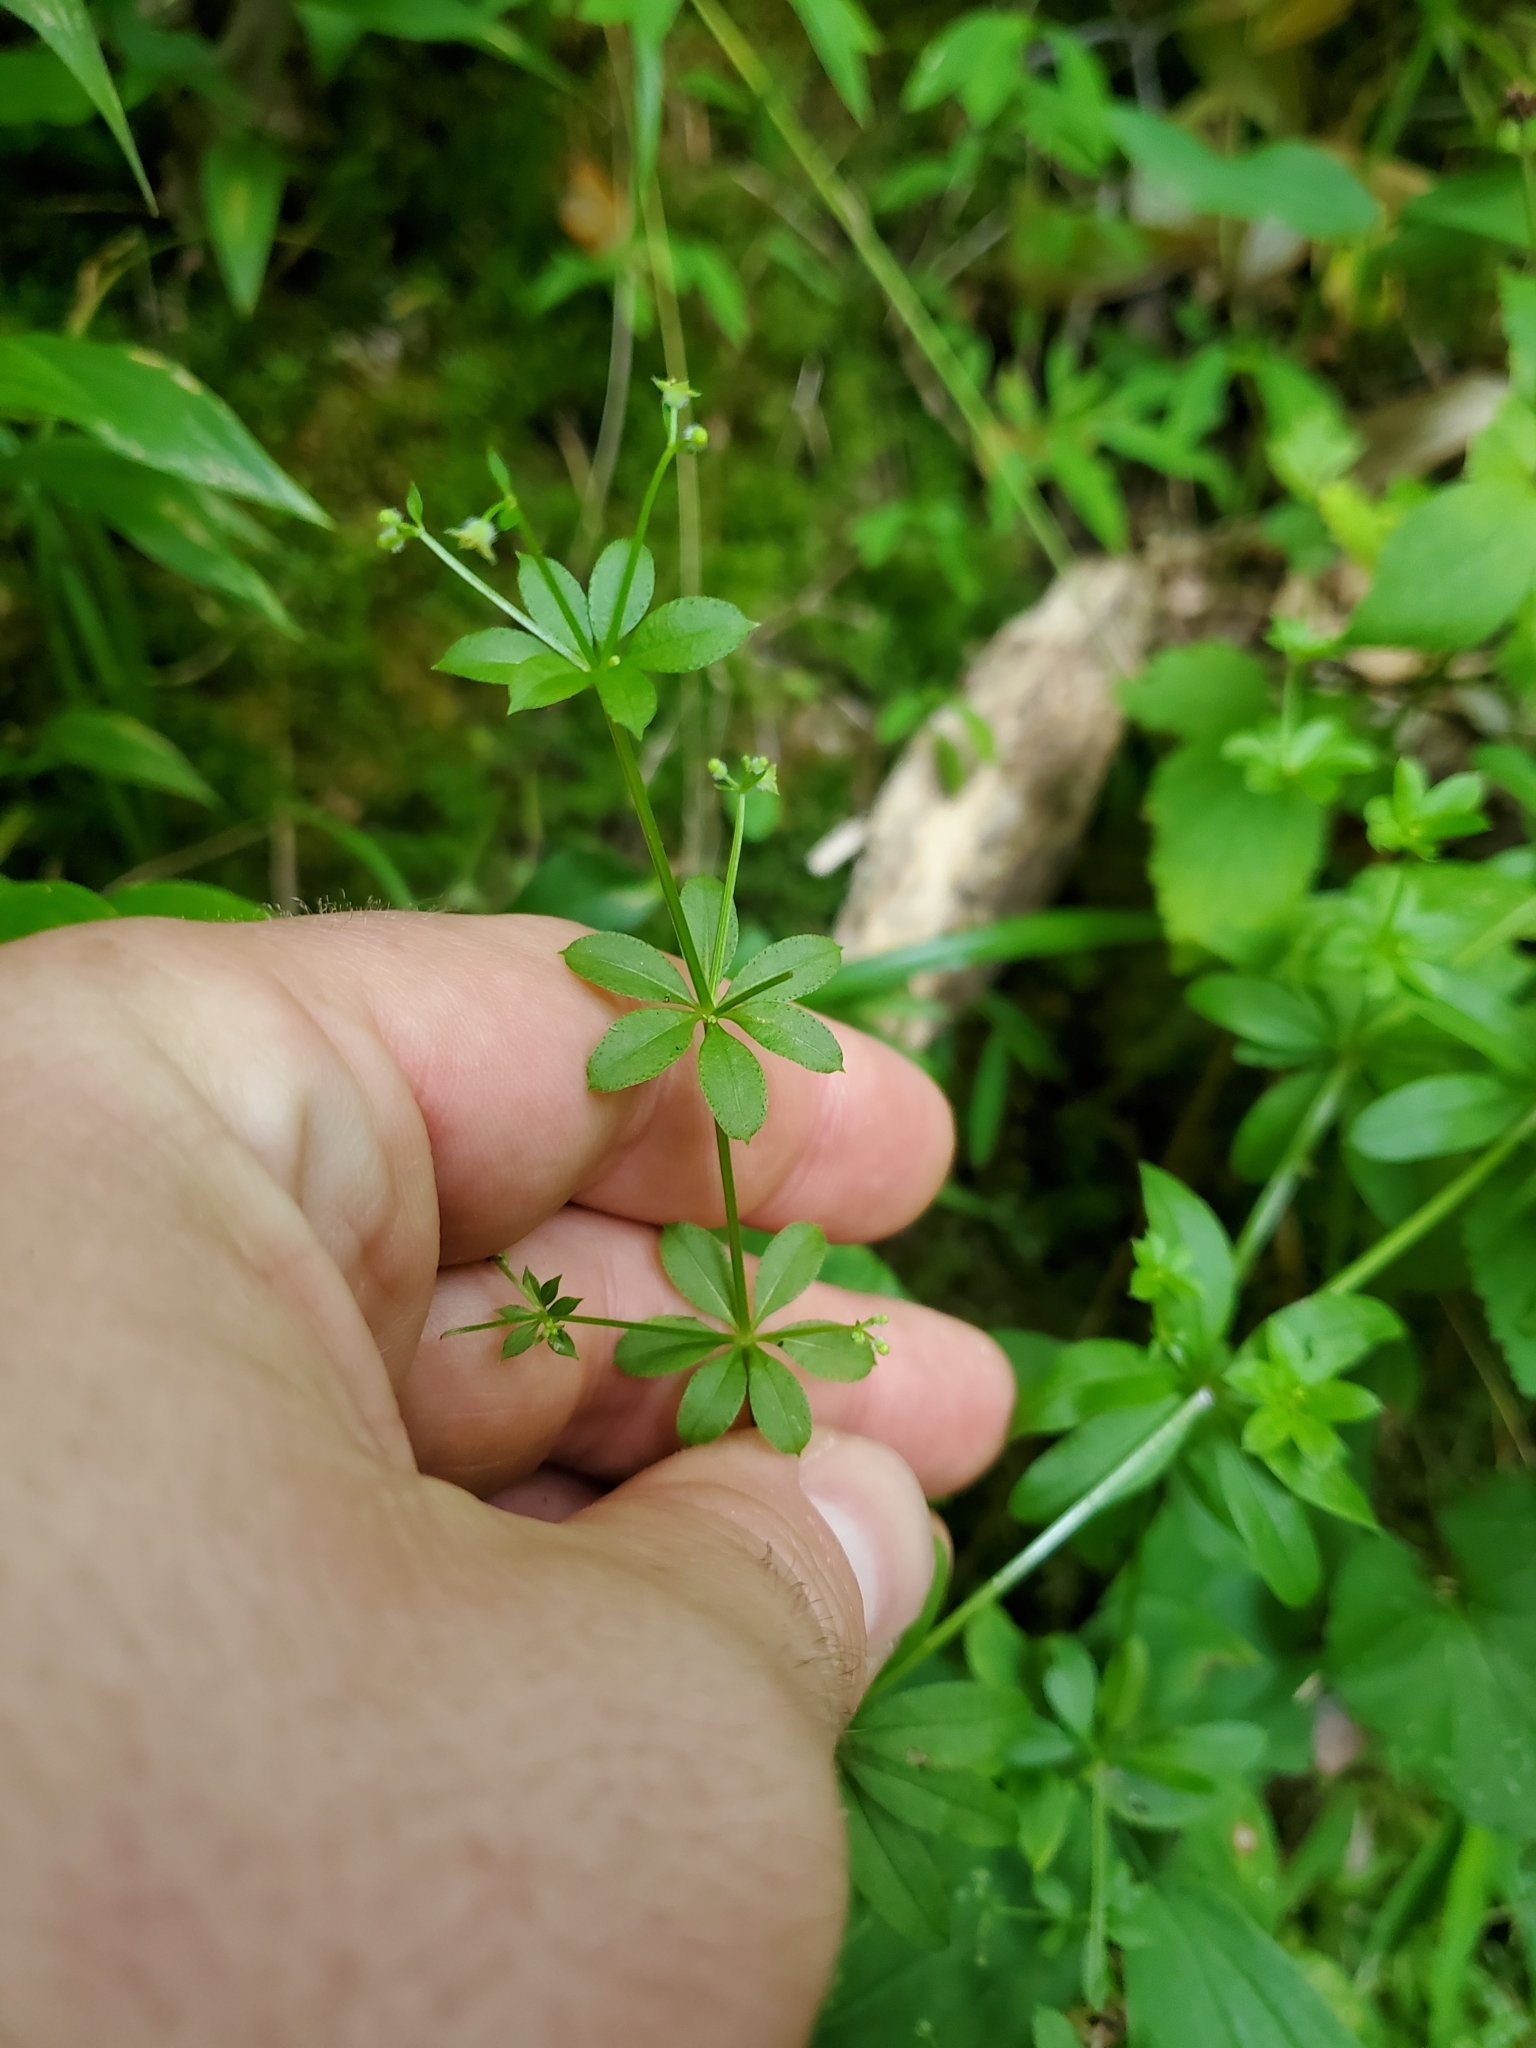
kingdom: Plantae
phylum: Tracheophyta
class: Magnoliopsida
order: Gentianales
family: Rubiaceae
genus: Galium
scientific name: Galium triflorum
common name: Fragrant bedstraw
